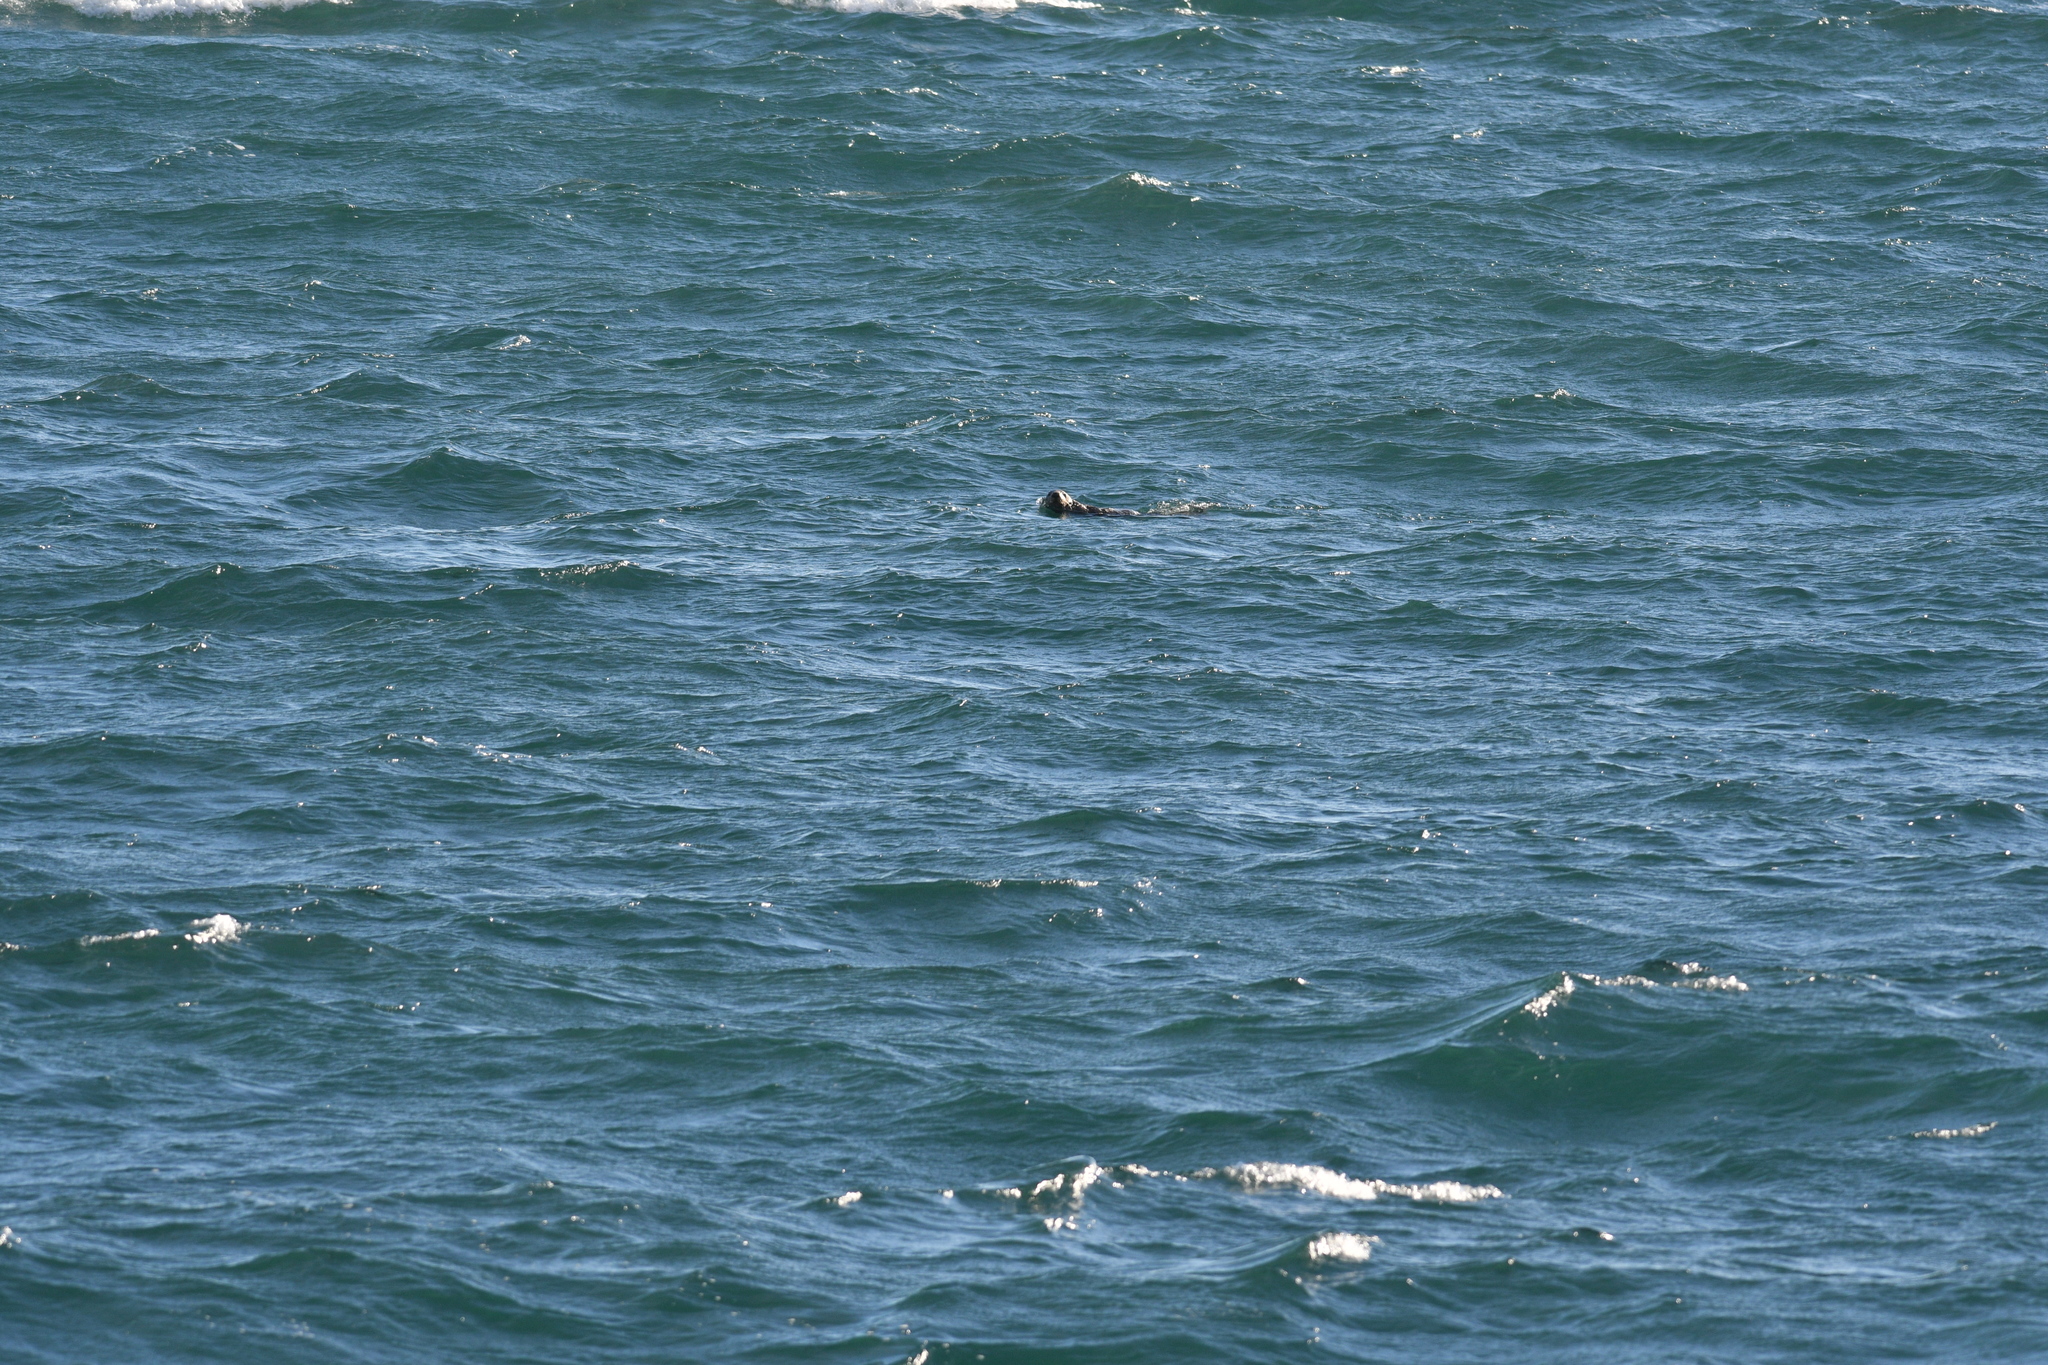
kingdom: Animalia
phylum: Chordata
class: Mammalia
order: Carnivora
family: Mustelidae
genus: Enhydra
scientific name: Enhydra lutris
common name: Sea otter
